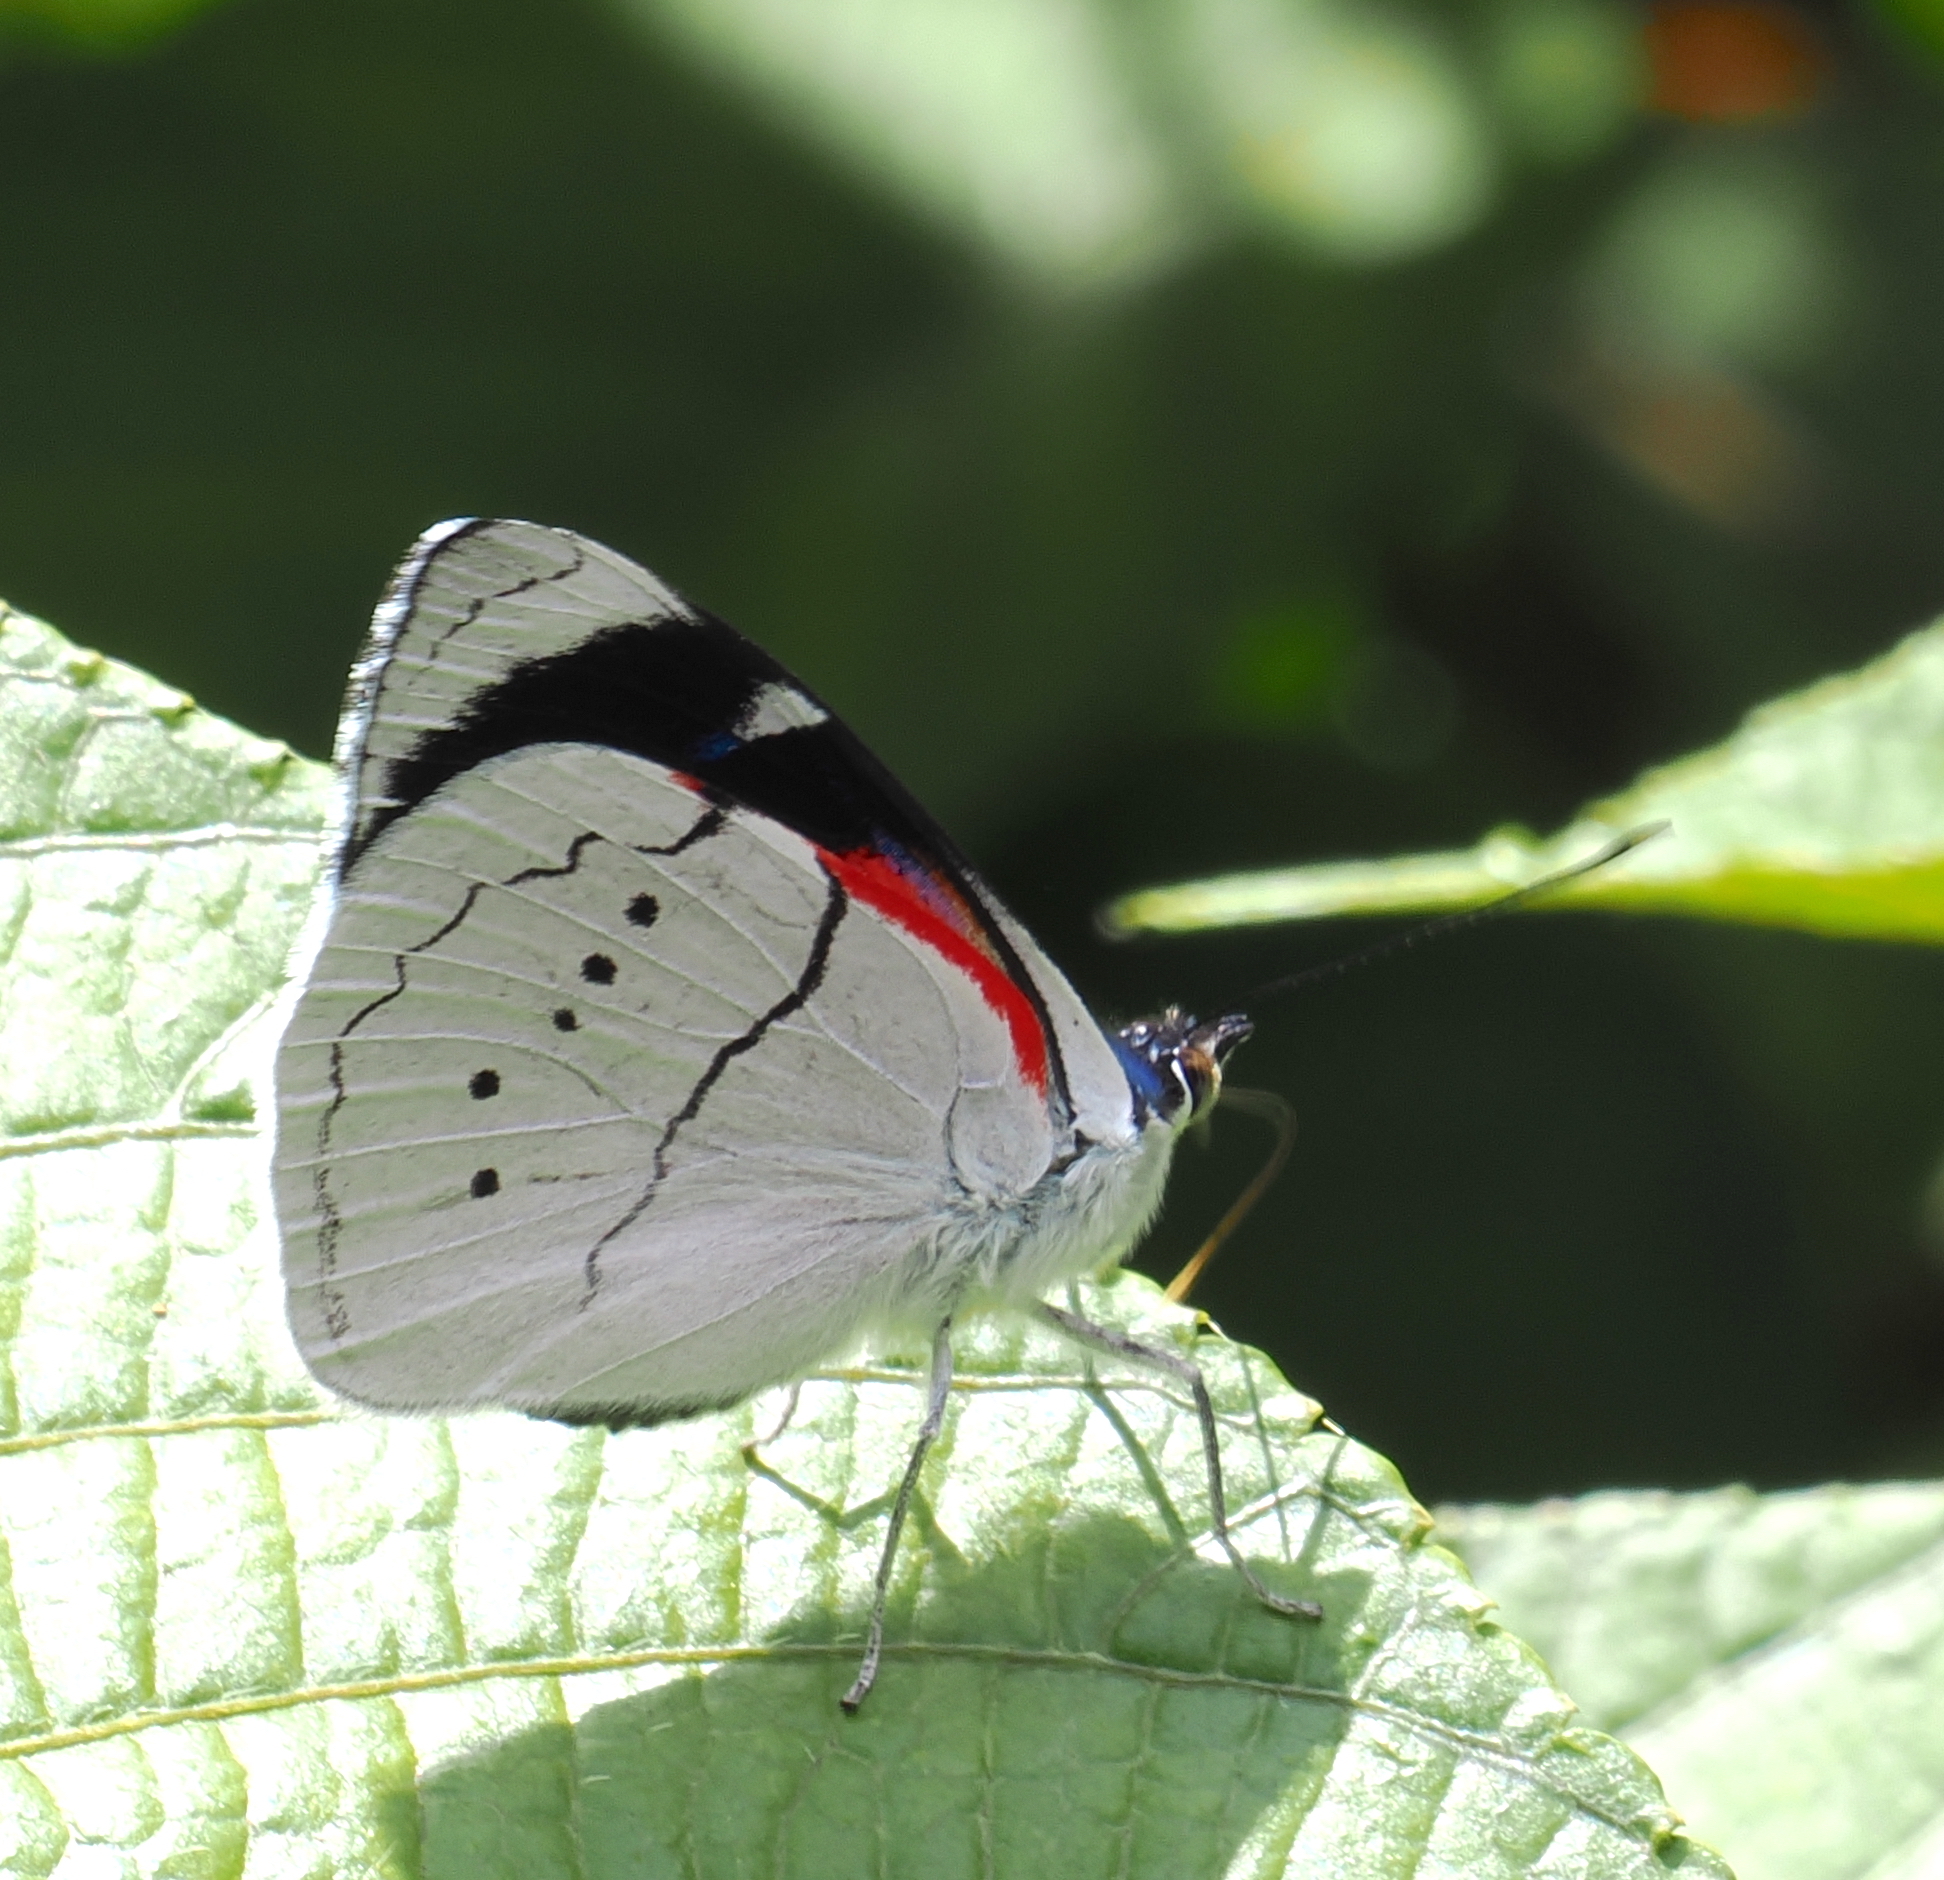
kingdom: Animalia
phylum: Arthropoda
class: Insecta
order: Lepidoptera
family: Nymphalidae
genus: Perisama
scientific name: Perisama alicia
